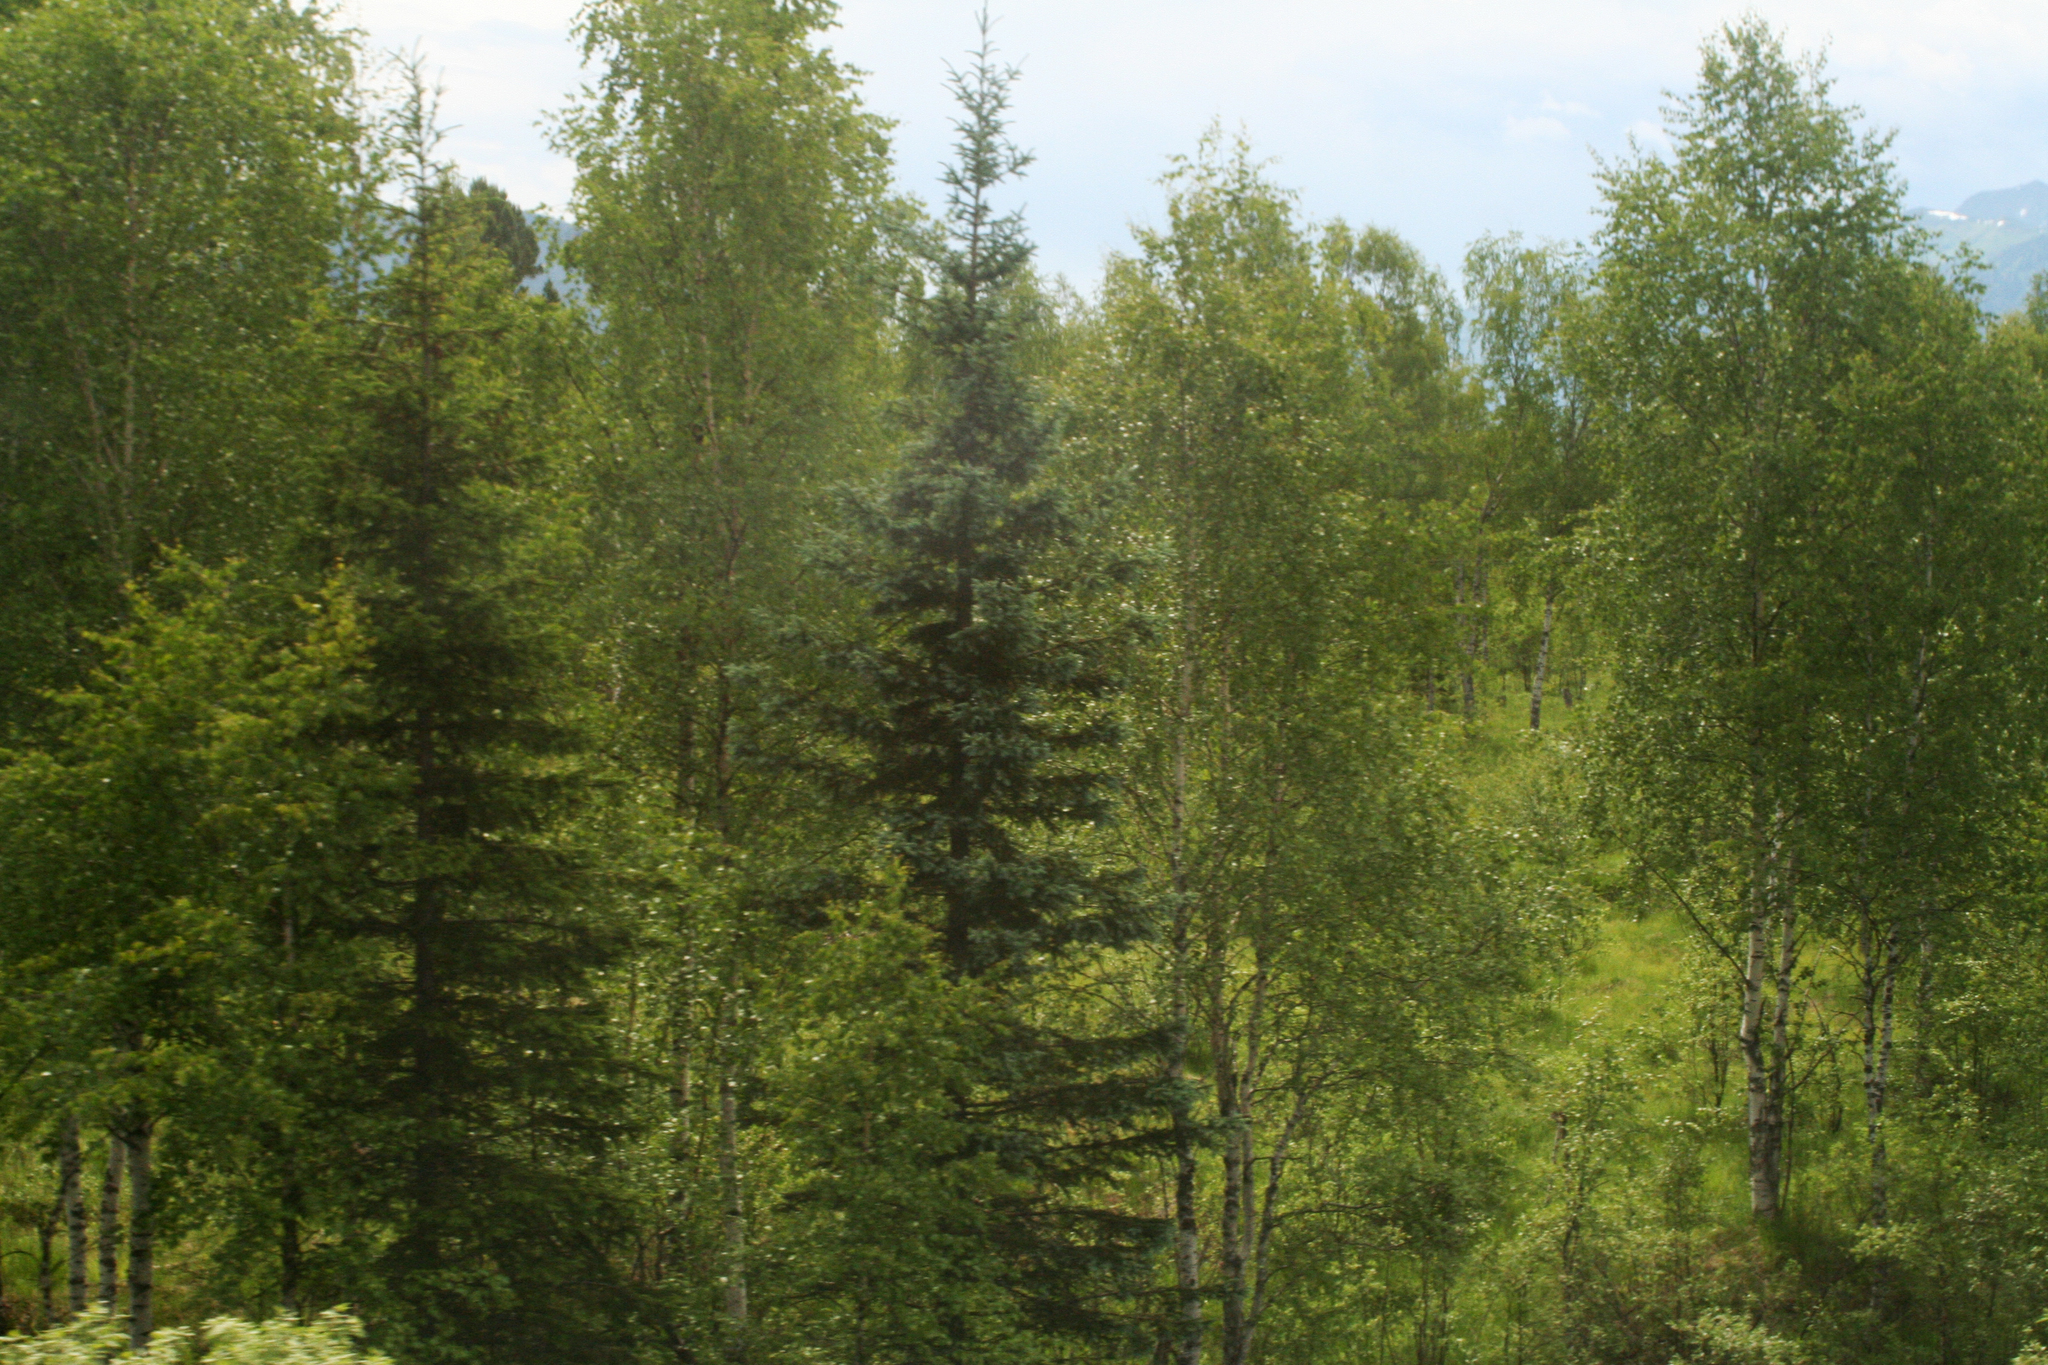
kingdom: Plantae
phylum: Tracheophyta
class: Pinopsida
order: Pinales
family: Pinaceae
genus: Picea
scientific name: Picea obovata
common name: Siberian spruce
